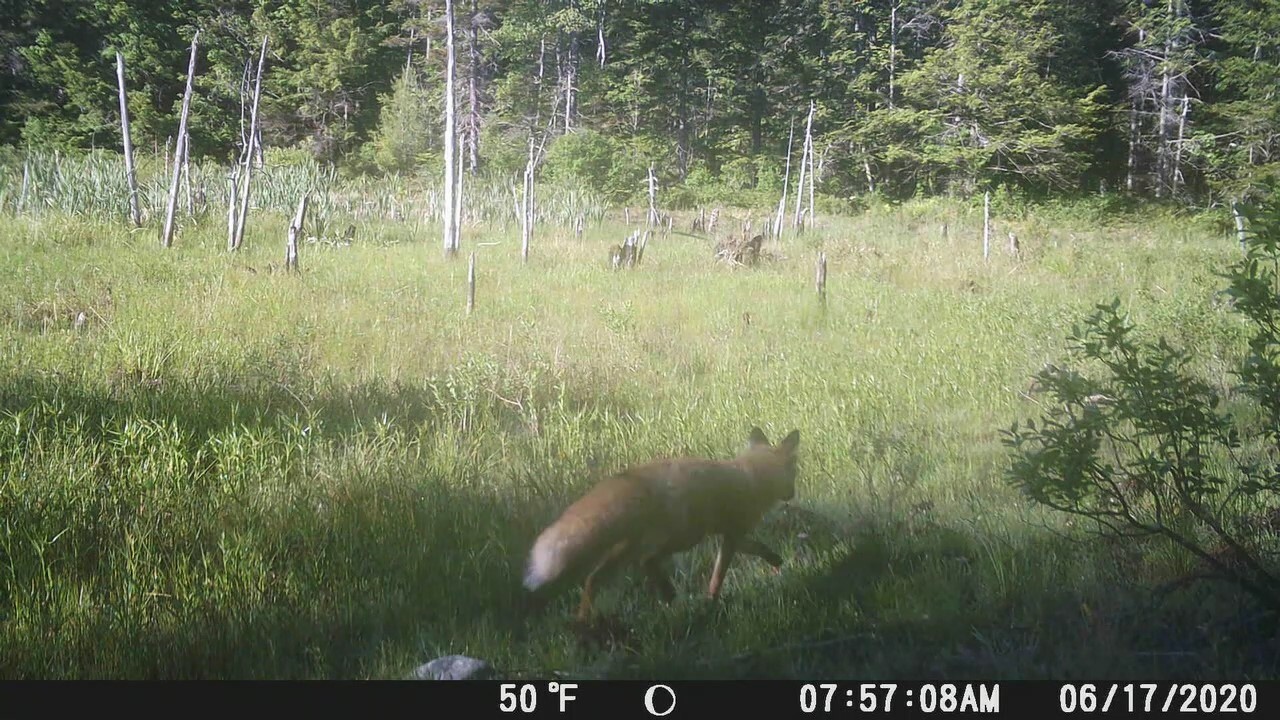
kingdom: Animalia
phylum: Chordata
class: Mammalia
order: Carnivora
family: Canidae
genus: Vulpes
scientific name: Vulpes vulpes
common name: Red fox
